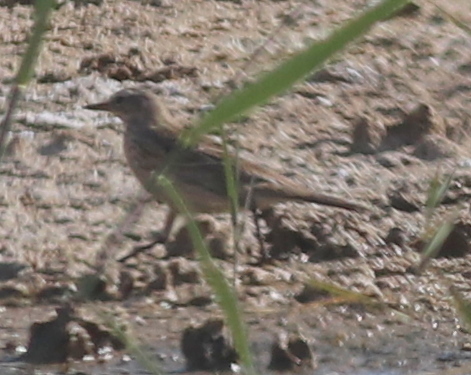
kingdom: Animalia
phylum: Chordata
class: Aves
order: Passeriformes
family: Motacillidae
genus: Anthus
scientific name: Anthus spinoletta
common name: Water pipit
